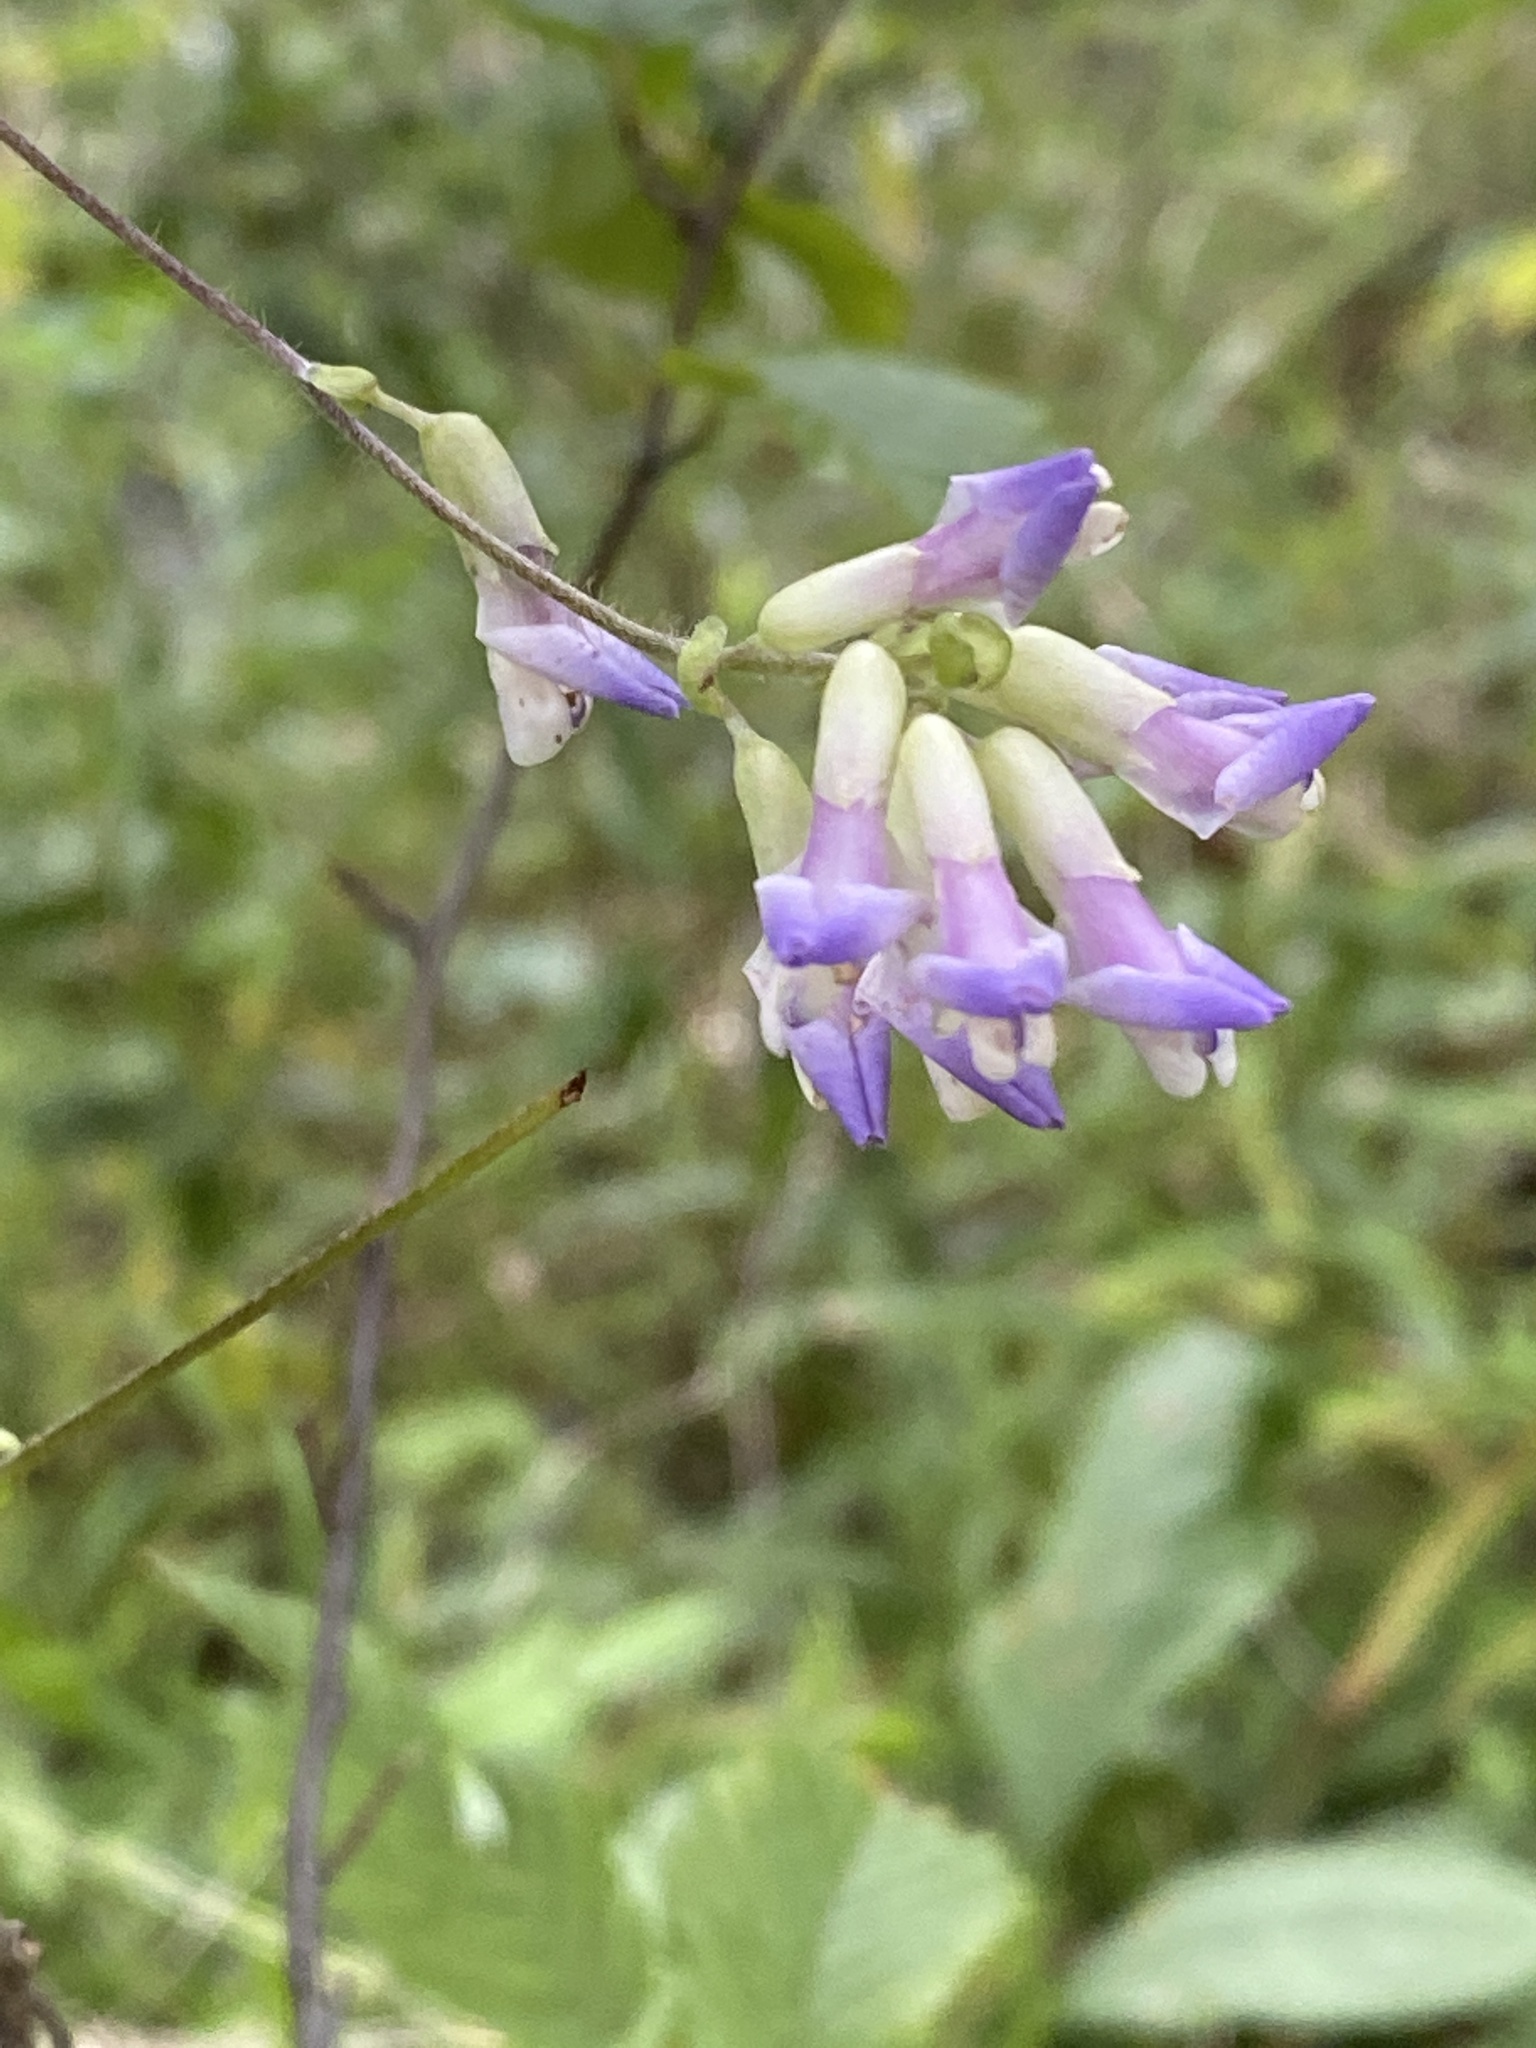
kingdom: Plantae
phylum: Tracheophyta
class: Magnoliopsida
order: Fabales
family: Fabaceae
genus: Amphicarpaea
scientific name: Amphicarpaea bracteata
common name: American hog peanut
